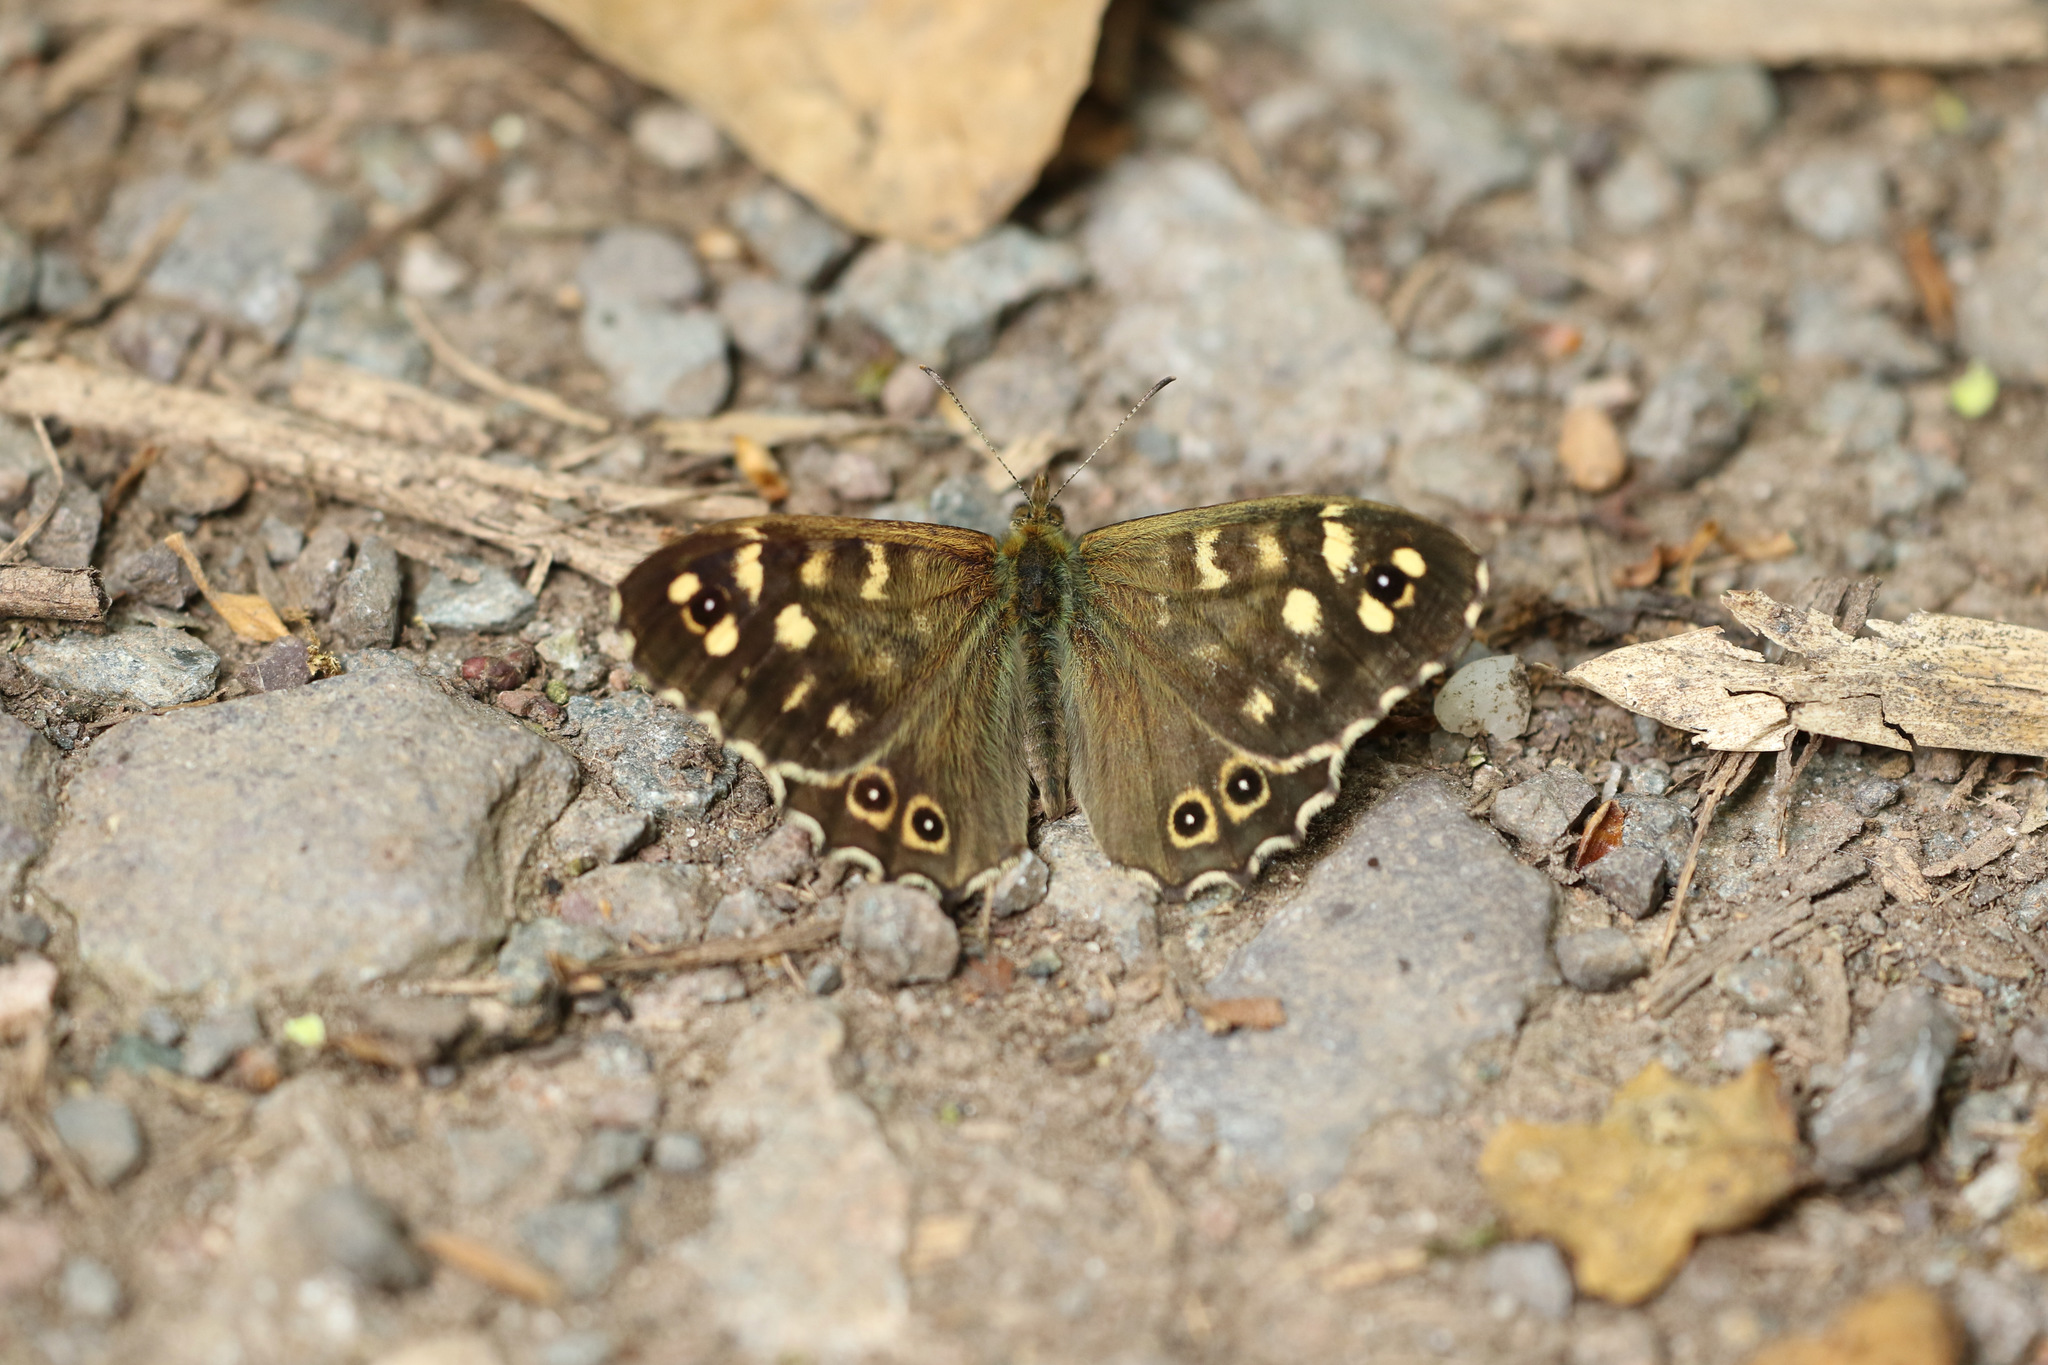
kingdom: Animalia
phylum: Arthropoda
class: Insecta
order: Lepidoptera
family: Nymphalidae
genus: Pararge
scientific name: Pararge aegeria
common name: Speckled wood
